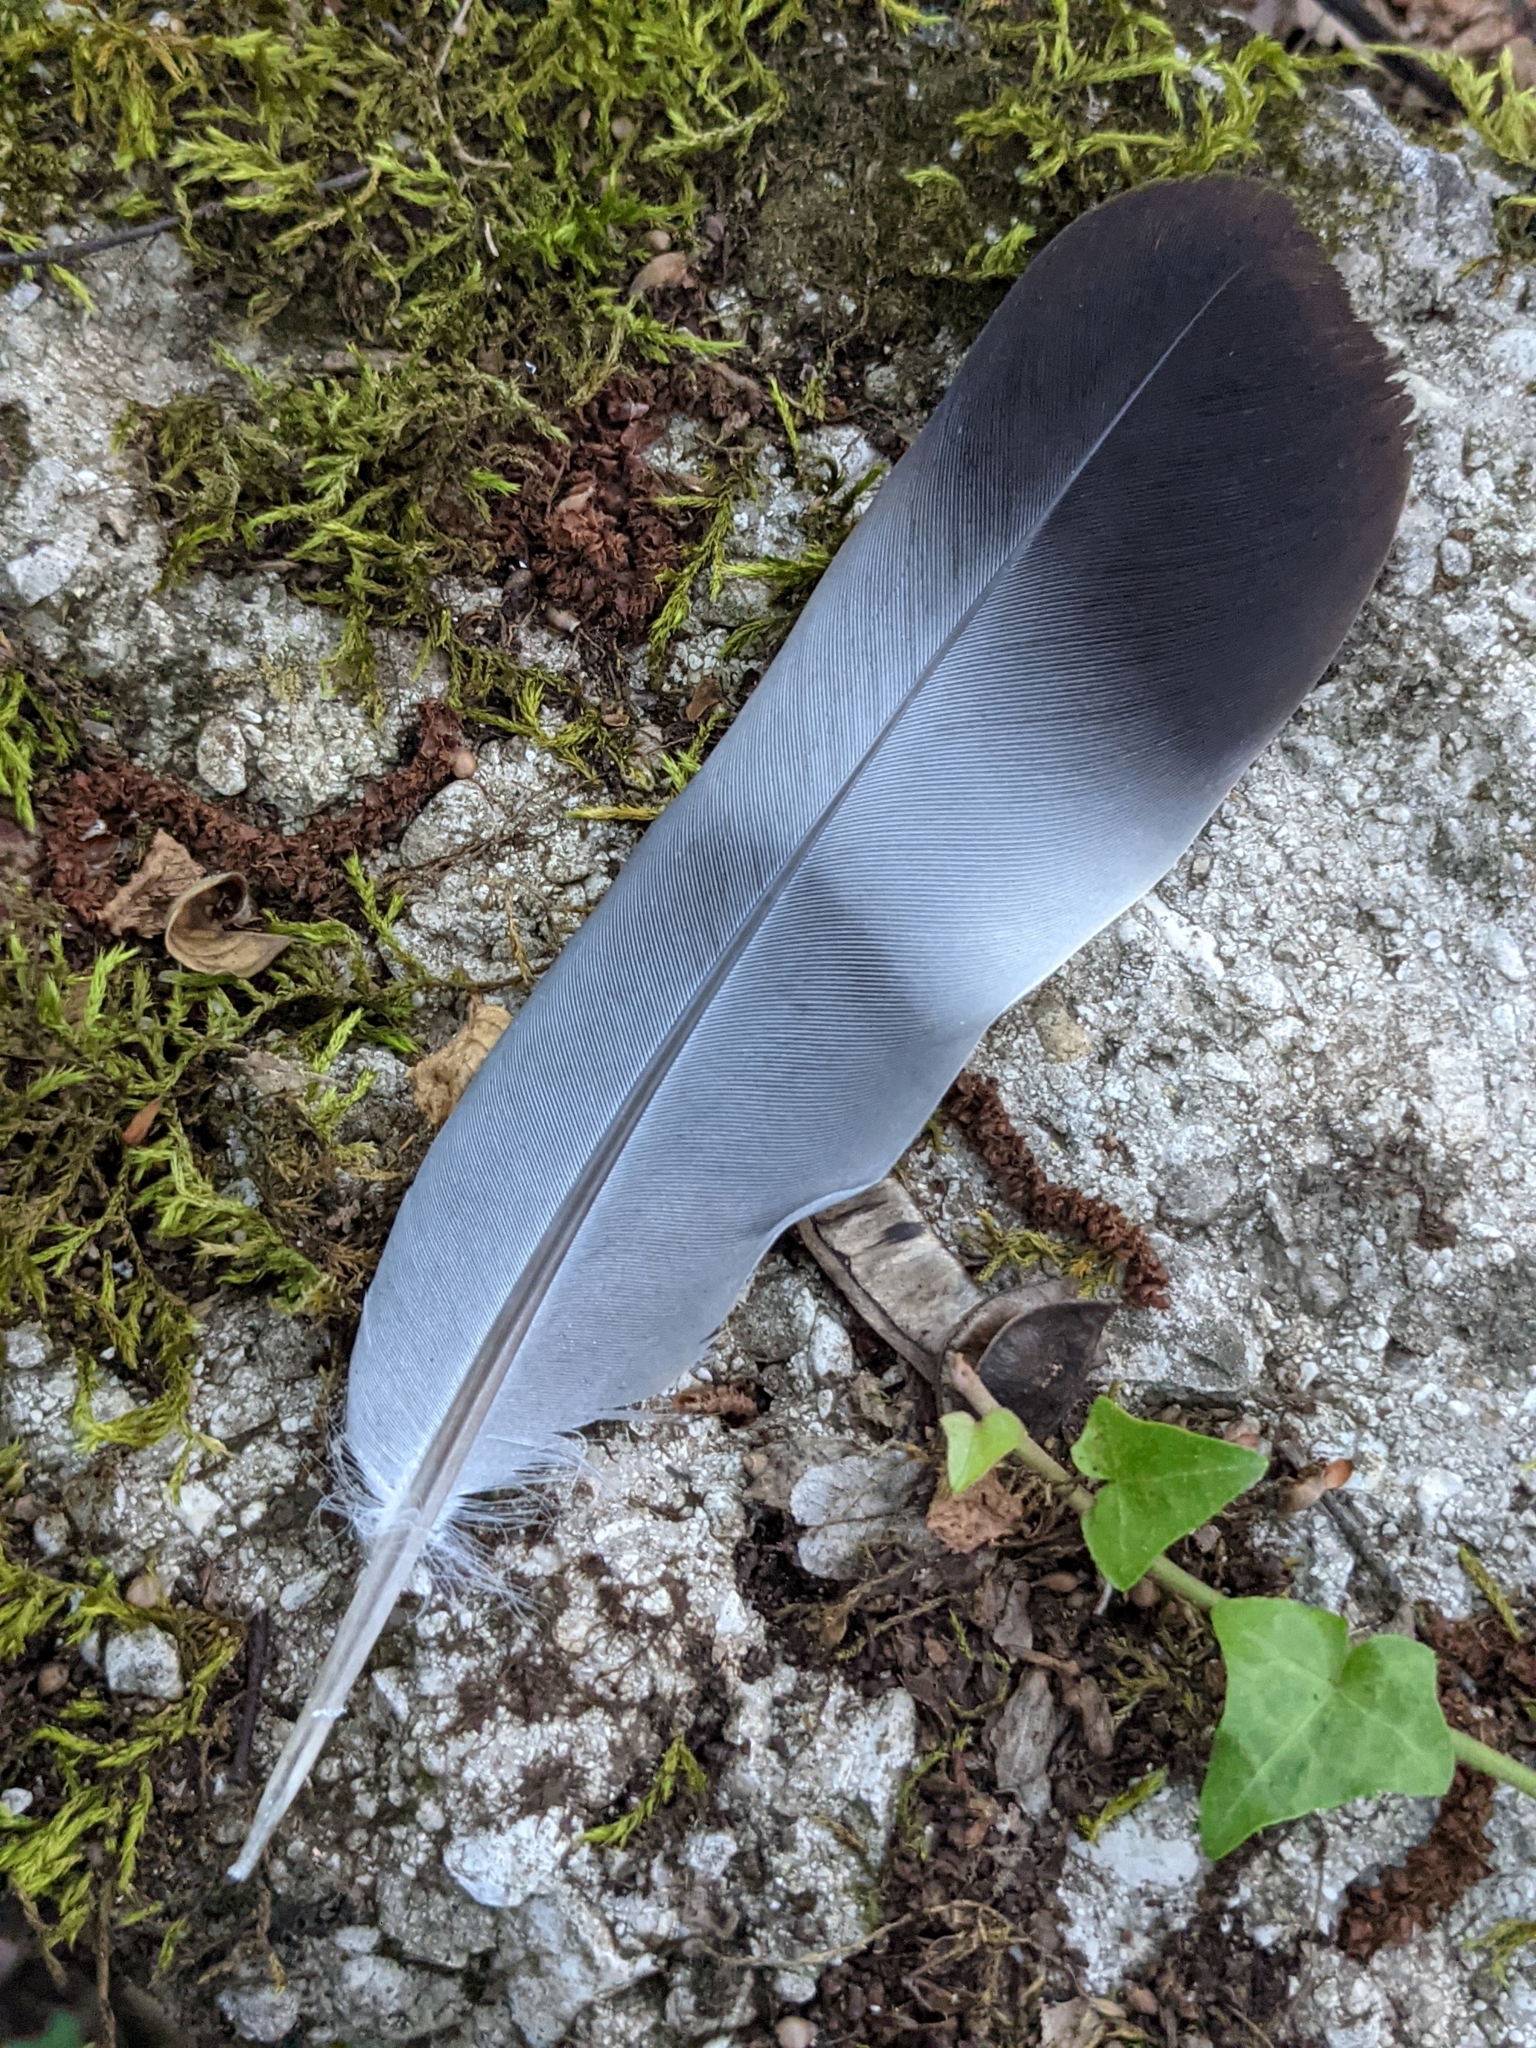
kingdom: Animalia
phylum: Chordata
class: Aves
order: Columbiformes
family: Columbidae
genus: Columba
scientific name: Columba palumbus
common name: Common wood pigeon
